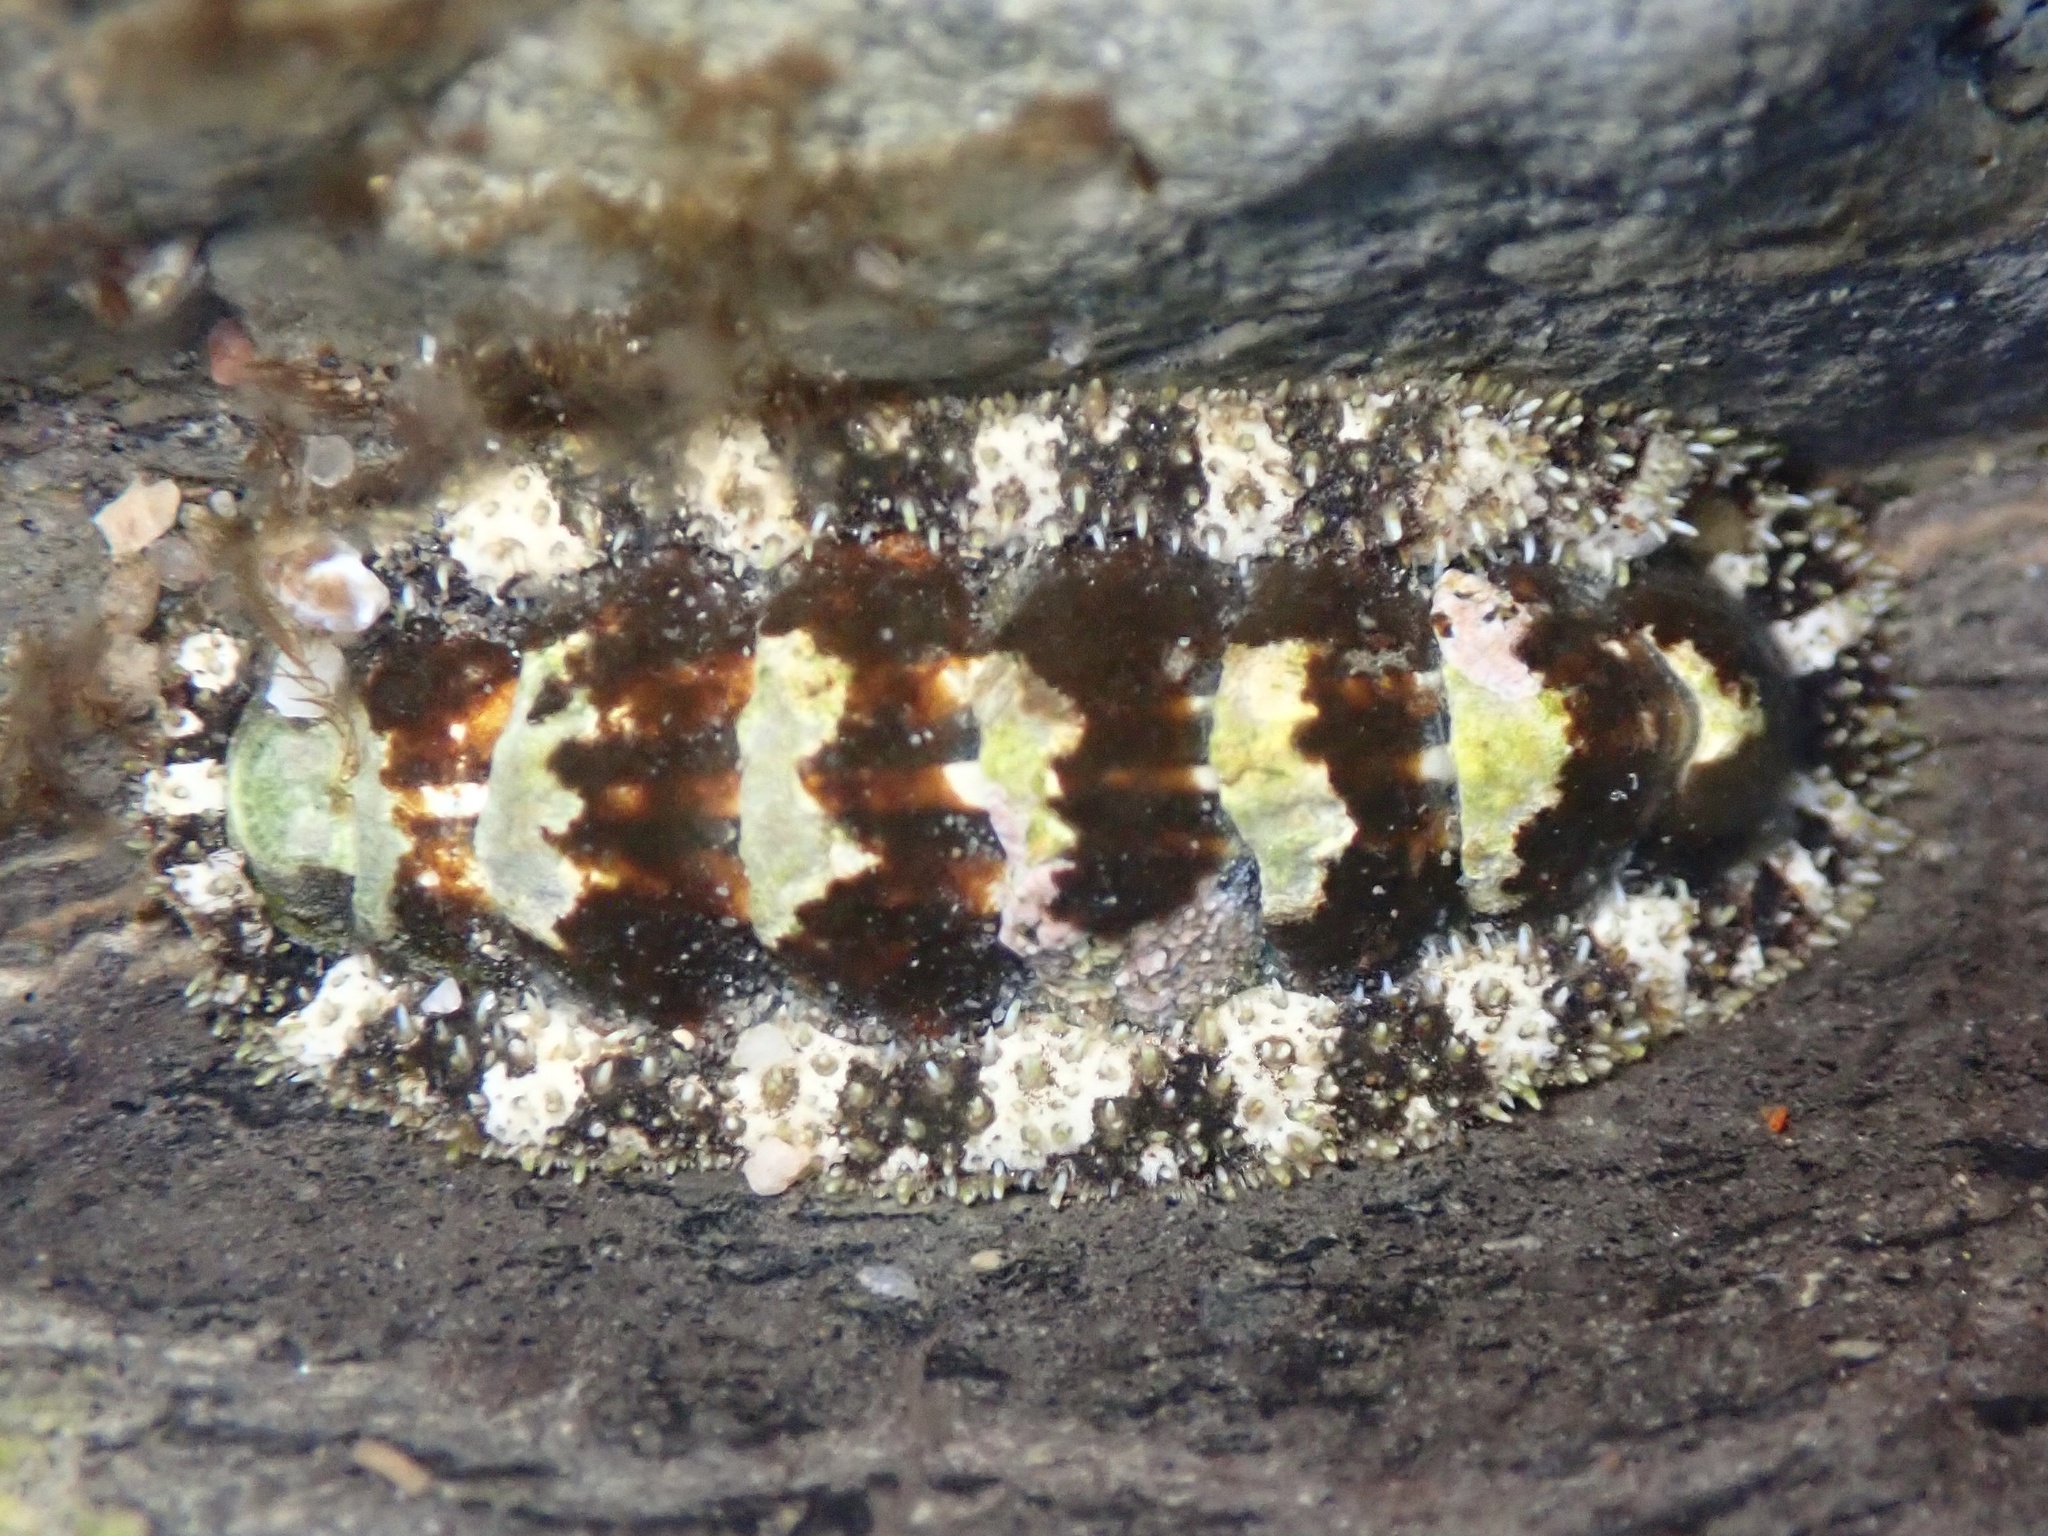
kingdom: Animalia
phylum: Mollusca
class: Polyplacophora
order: Chitonida
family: Tonicellidae
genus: Nuttallina
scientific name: Nuttallina californica
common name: California nuttall chiton
